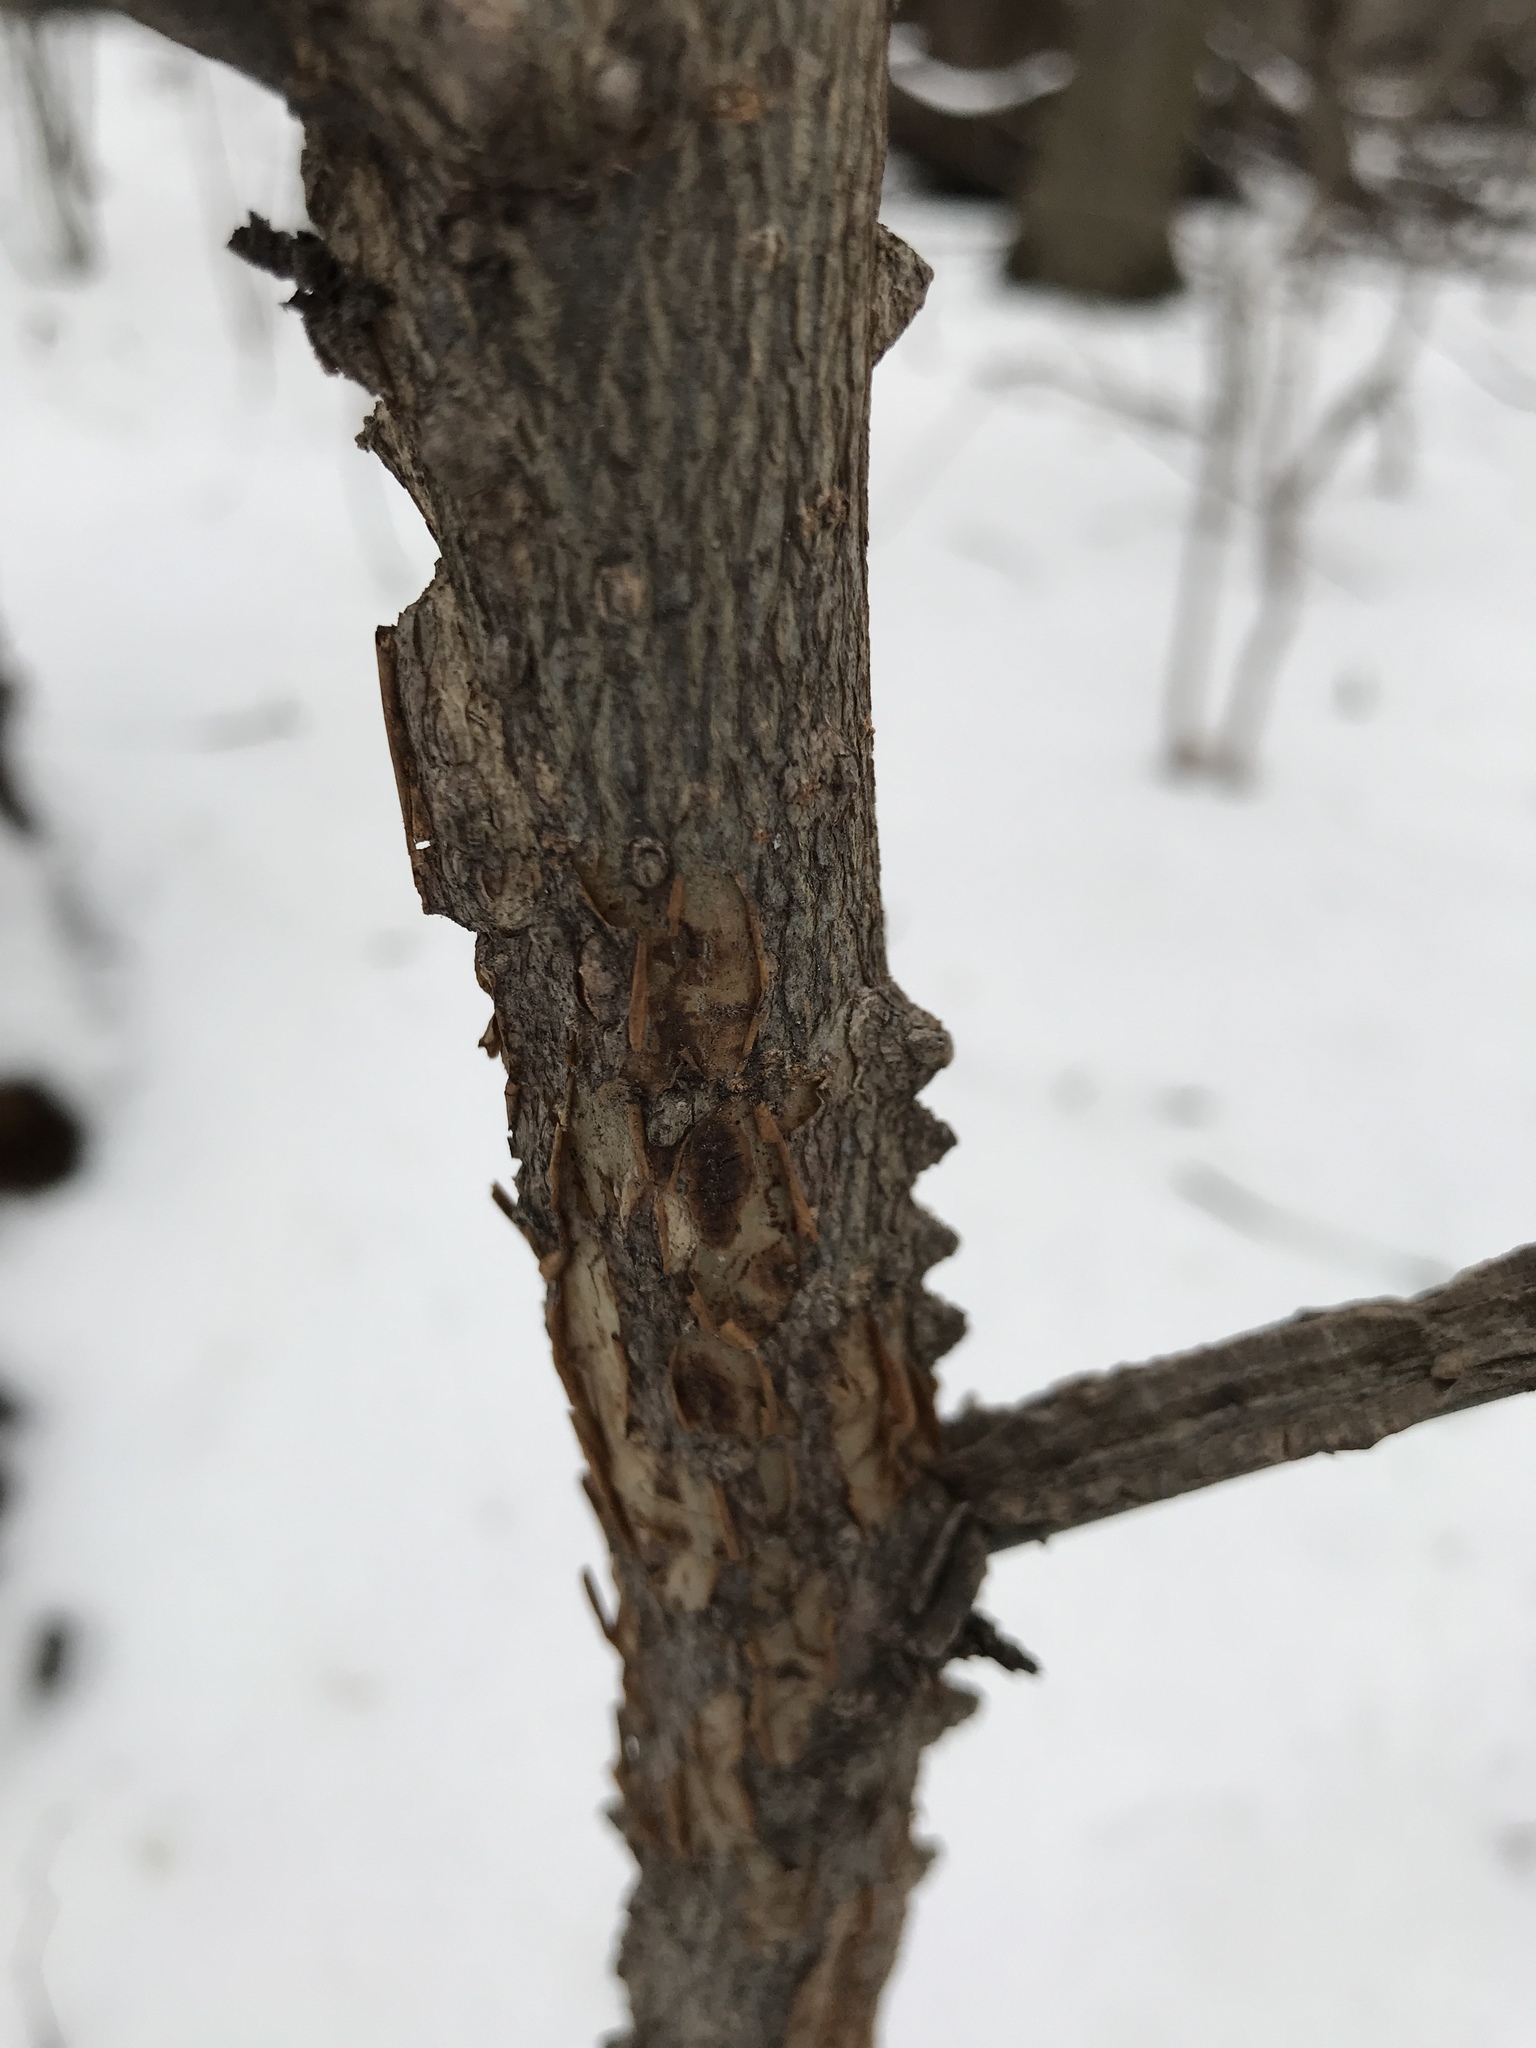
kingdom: Plantae
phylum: Tracheophyta
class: Magnoliopsida
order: Saxifragales
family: Altingiaceae
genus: Liquidambar
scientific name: Liquidambar styraciflua
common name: Sweet gum
